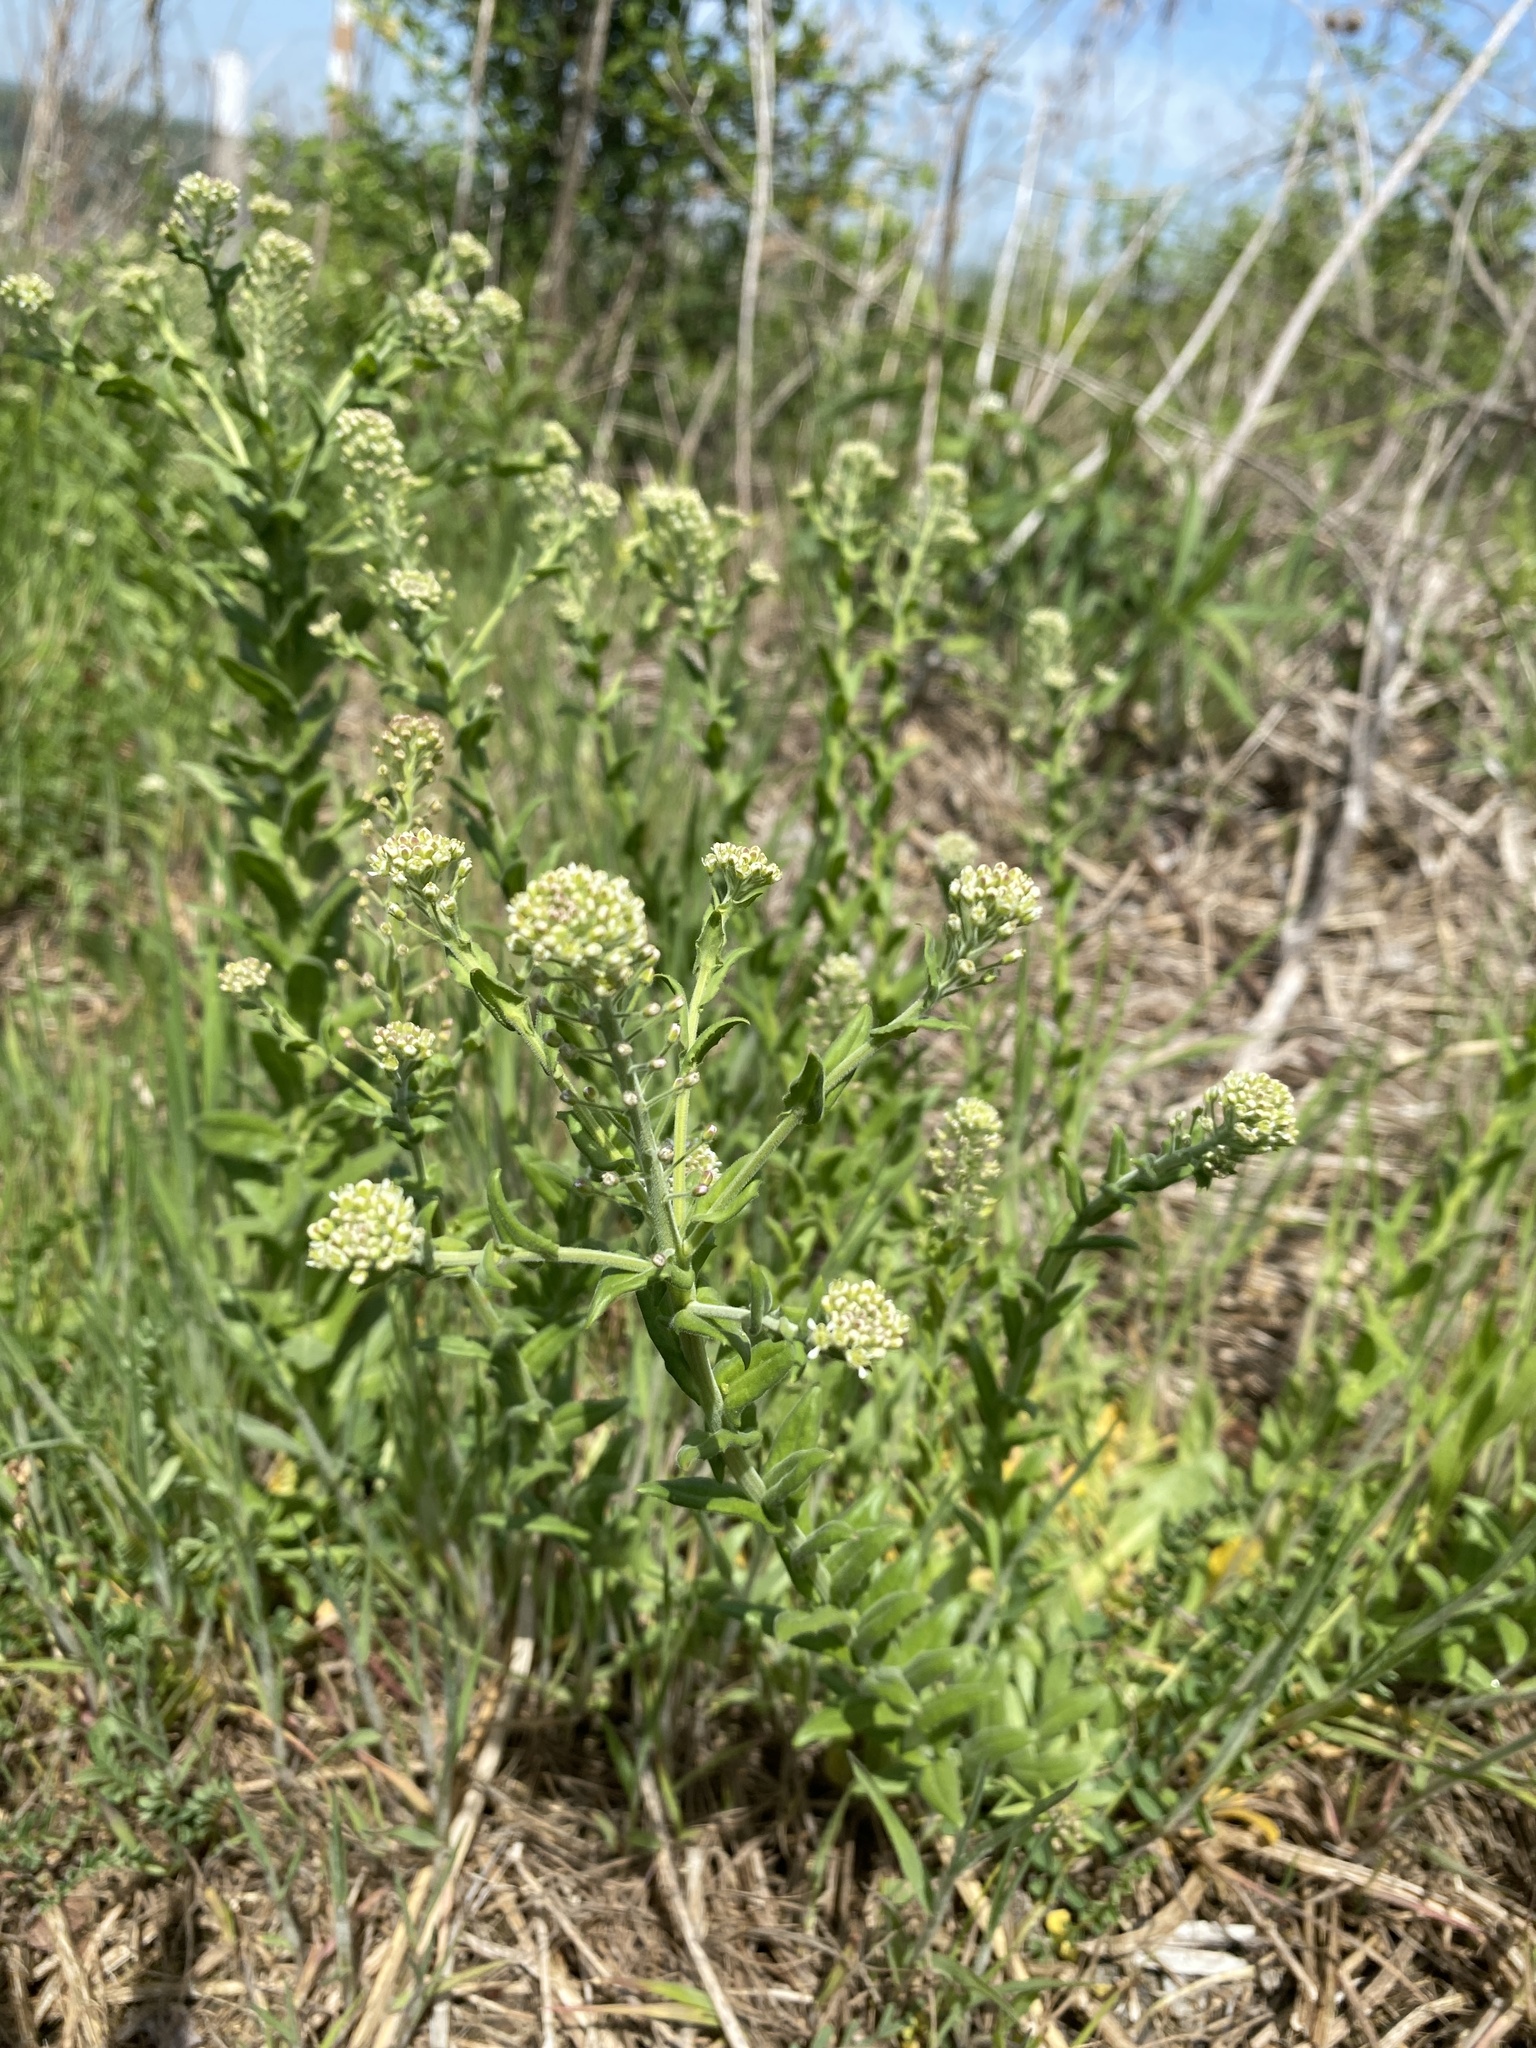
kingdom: Plantae
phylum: Tracheophyta
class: Magnoliopsida
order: Brassicales
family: Brassicaceae
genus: Lepidium
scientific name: Lepidium campestre
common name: Field pepperwort
